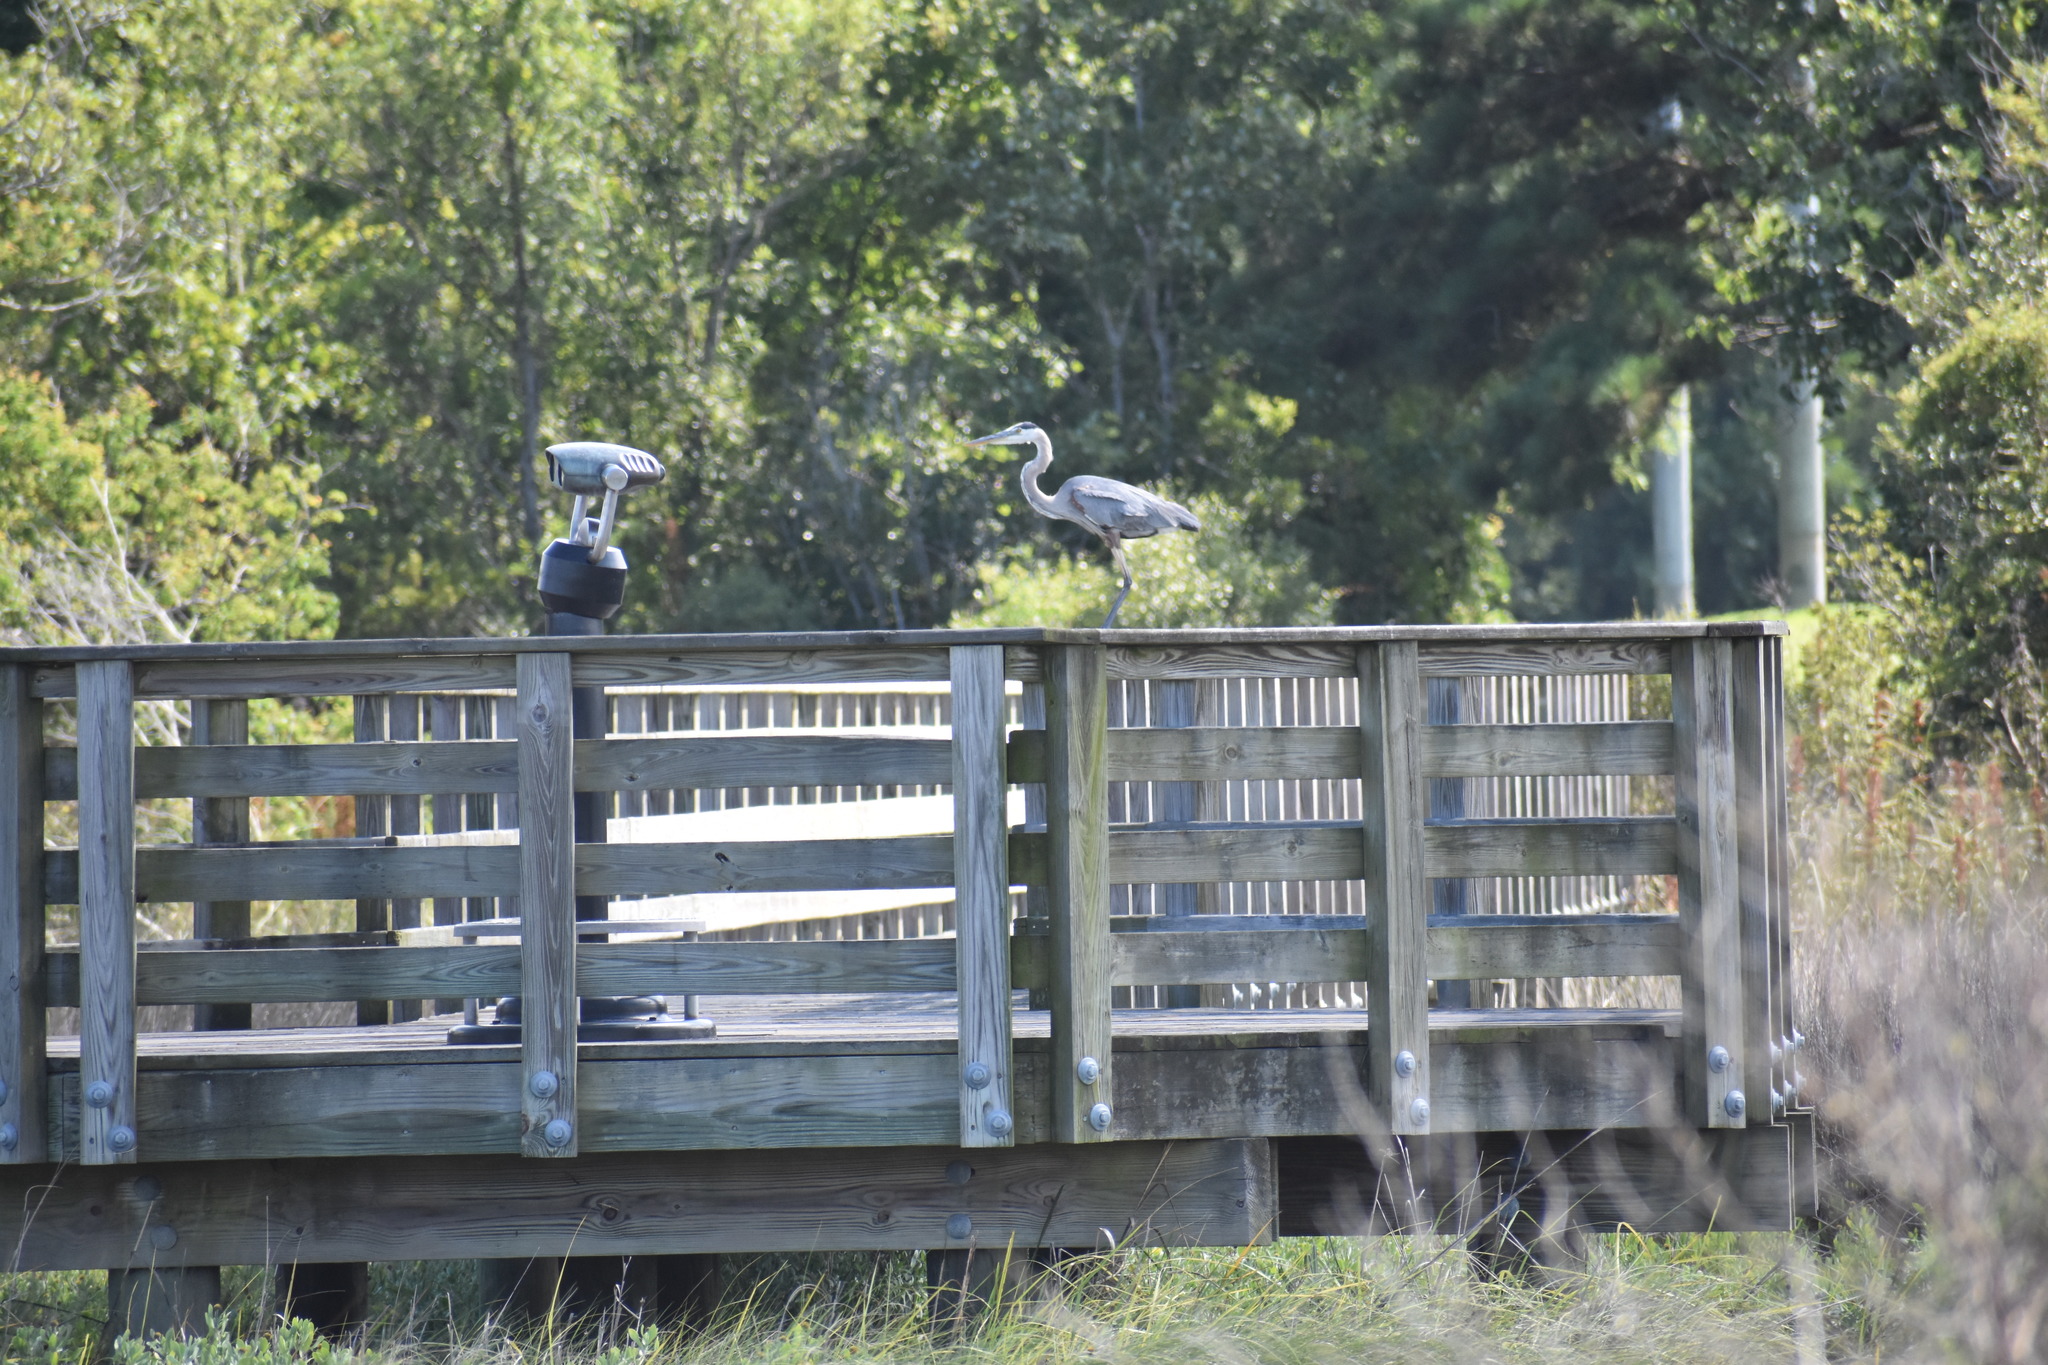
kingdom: Animalia
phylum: Chordata
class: Aves
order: Pelecaniformes
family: Ardeidae
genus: Ardea
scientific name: Ardea herodias
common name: Great blue heron
